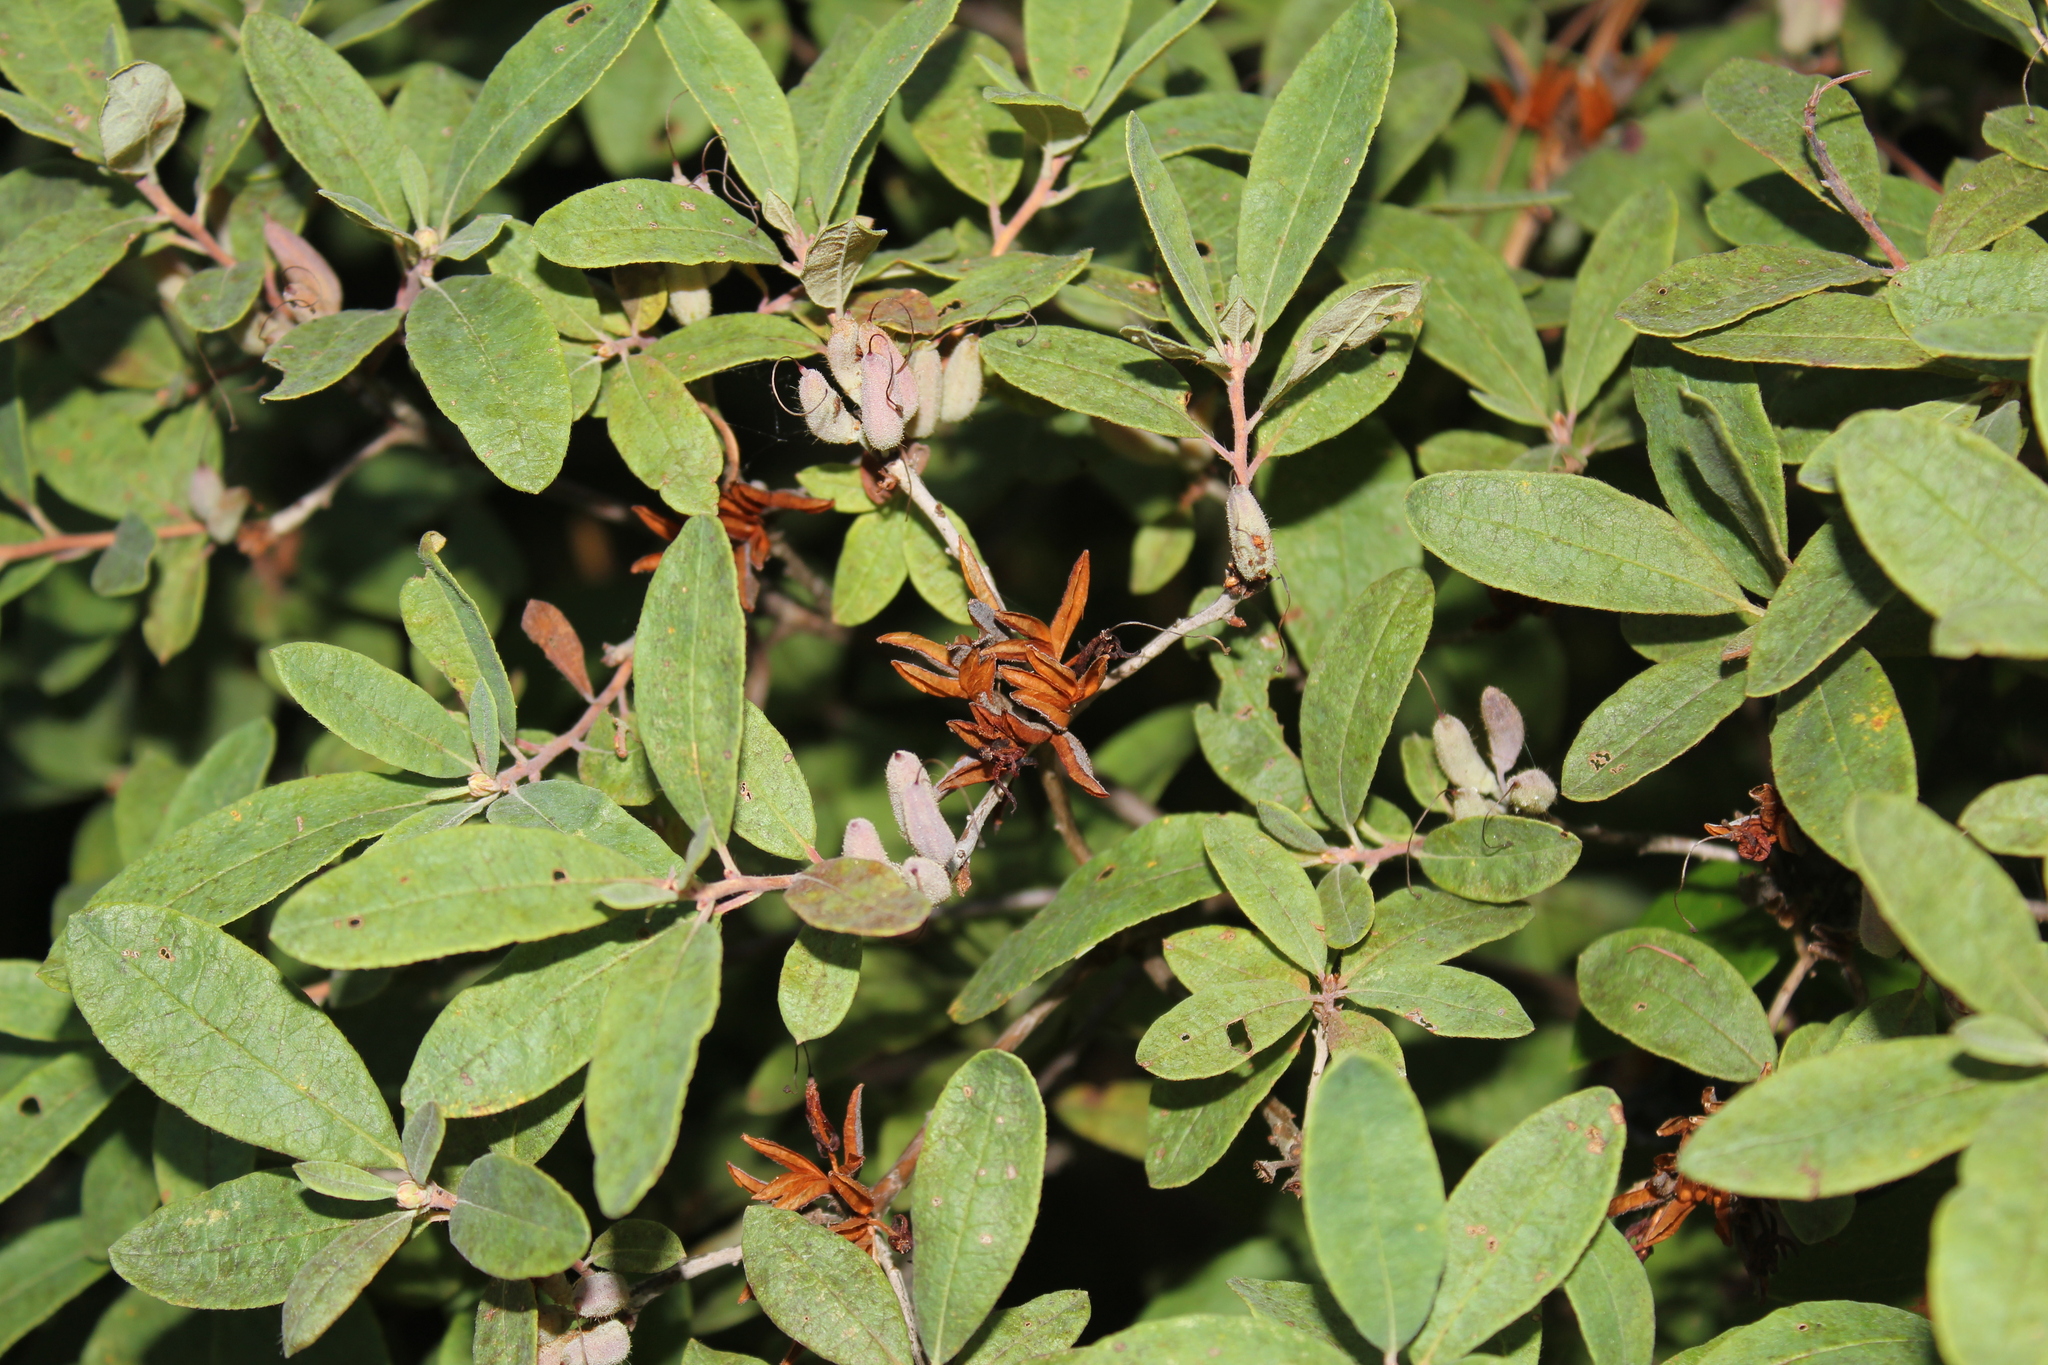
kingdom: Plantae
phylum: Tracheophyta
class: Magnoliopsida
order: Ericales
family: Ericaceae
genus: Rhododendron
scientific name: Rhododendron canadense
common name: Rhodora
